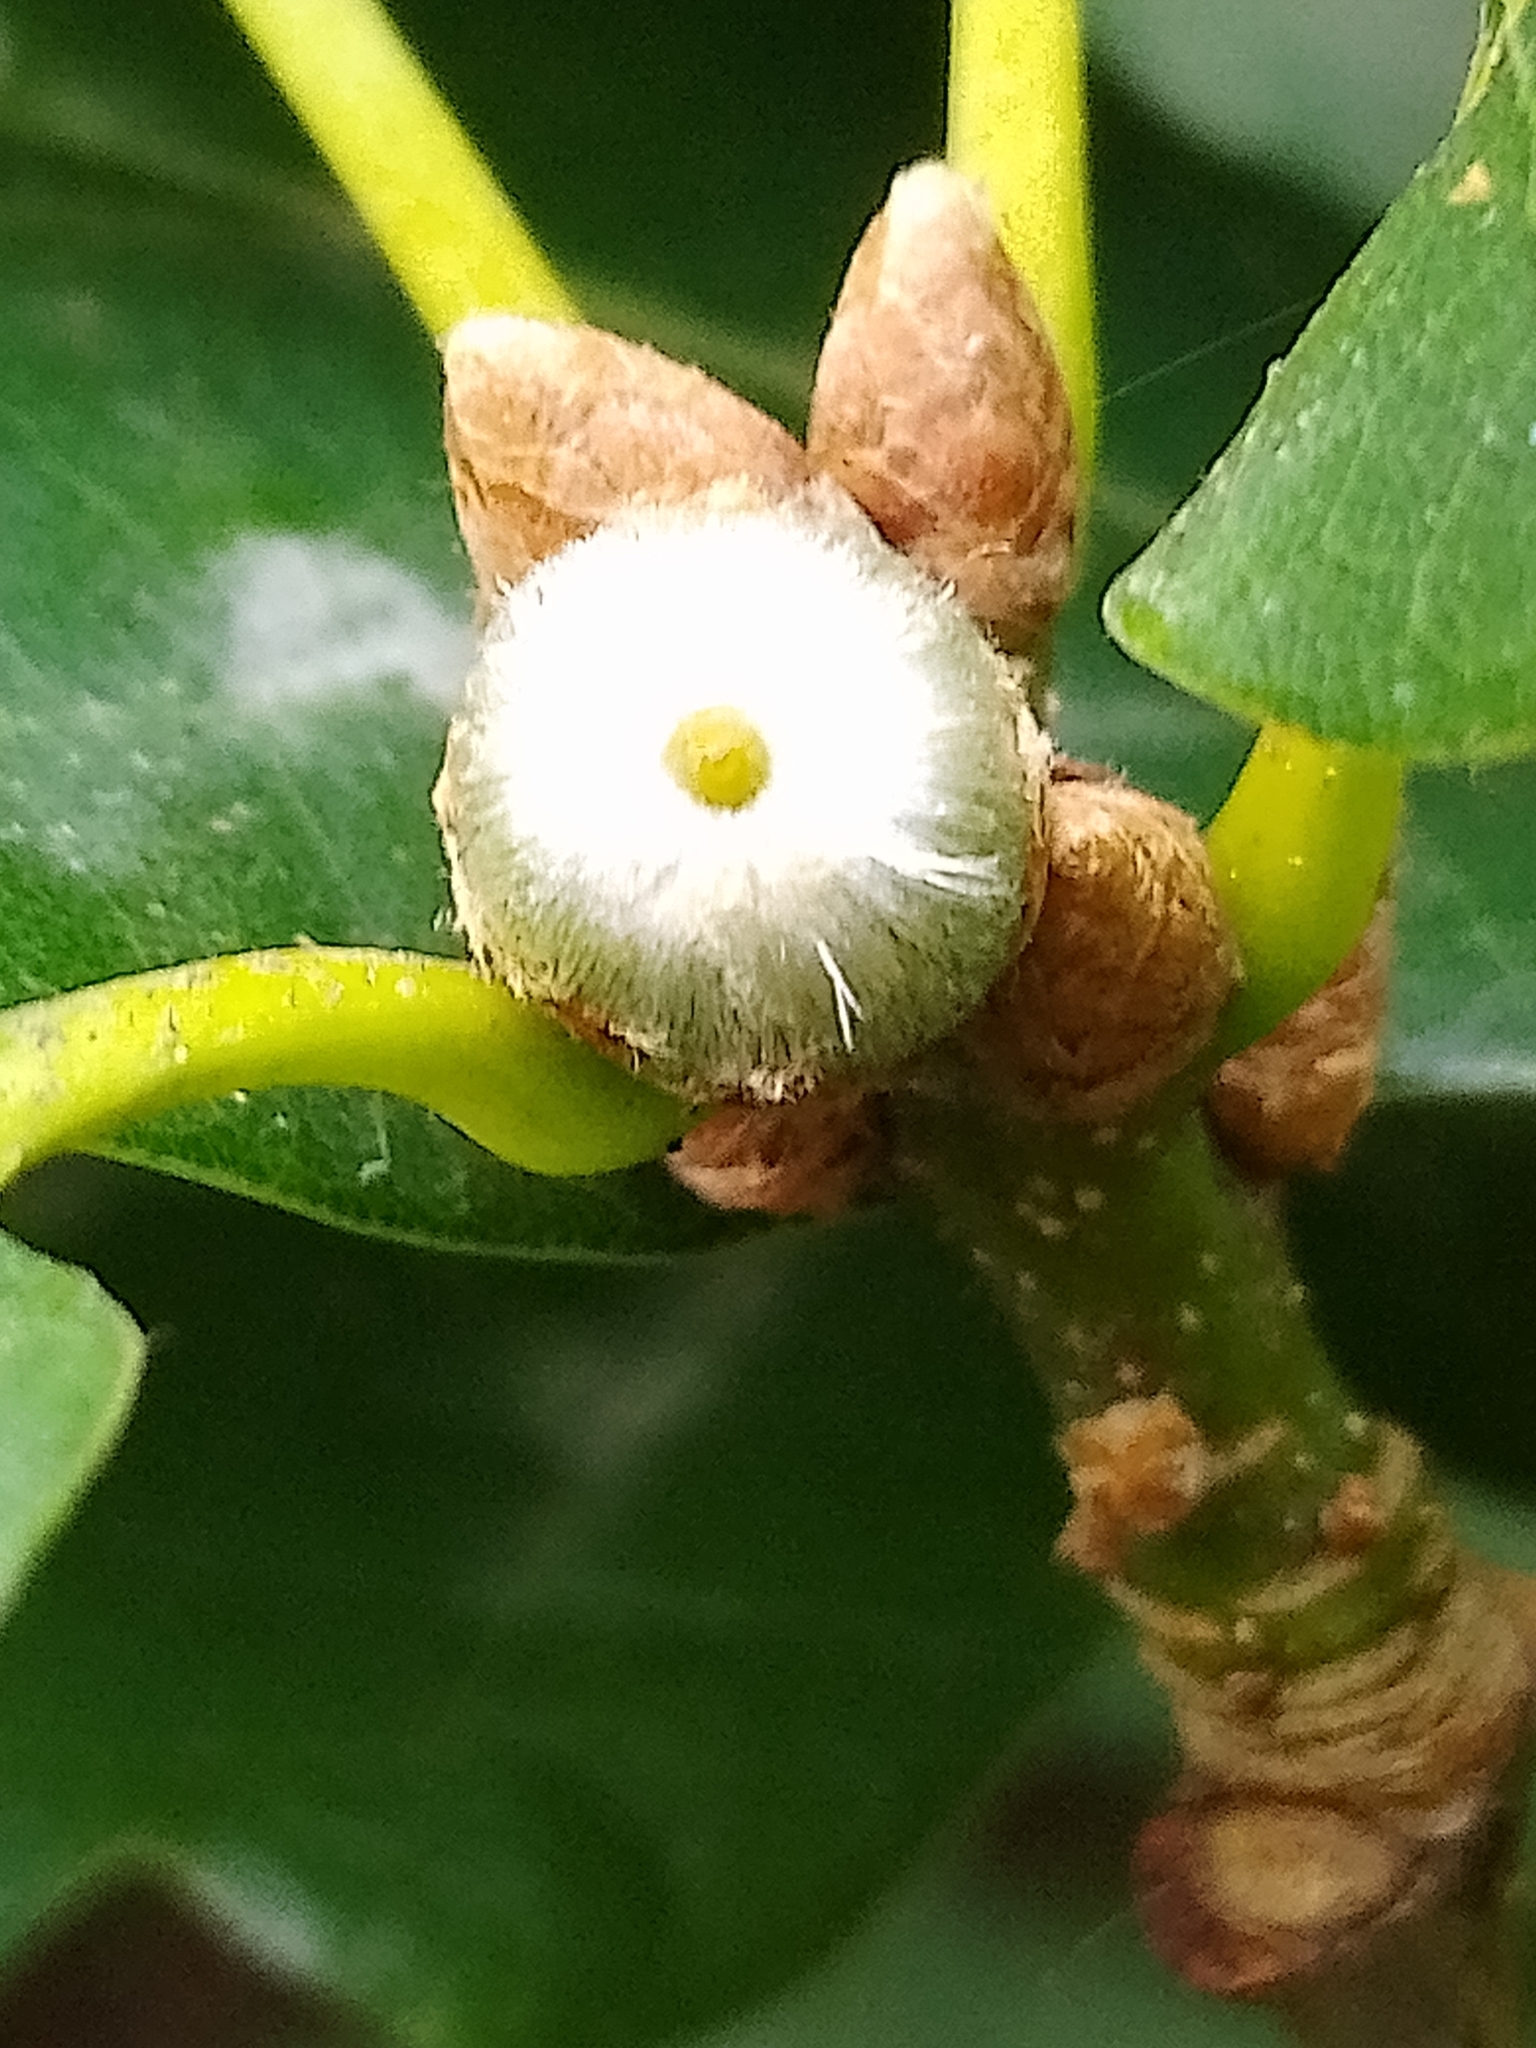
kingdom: Animalia
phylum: Arthropoda
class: Insecta
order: Hymenoptera
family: Cynipidae
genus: Andricus
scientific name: Andricus glandulae
